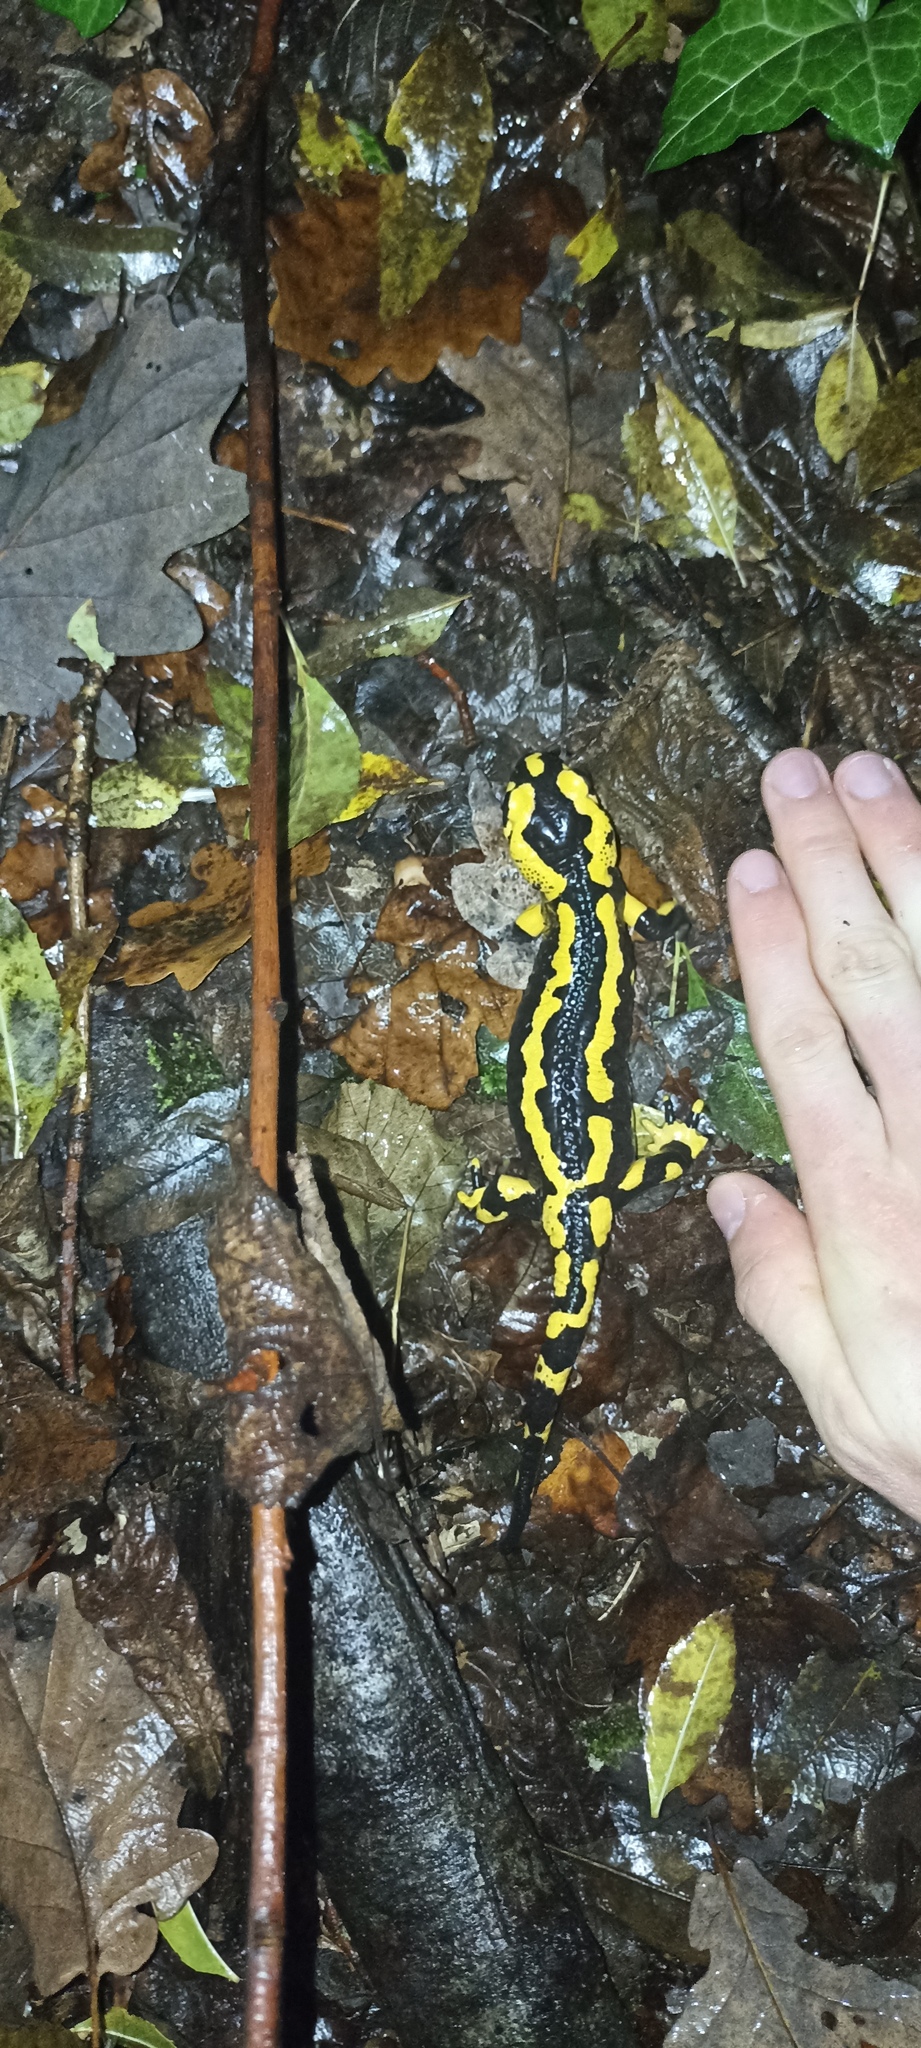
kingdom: Animalia
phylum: Chordata
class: Amphibia
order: Caudata
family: Salamandridae
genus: Salamandra
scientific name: Salamandra salamandra
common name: Fire salamander
